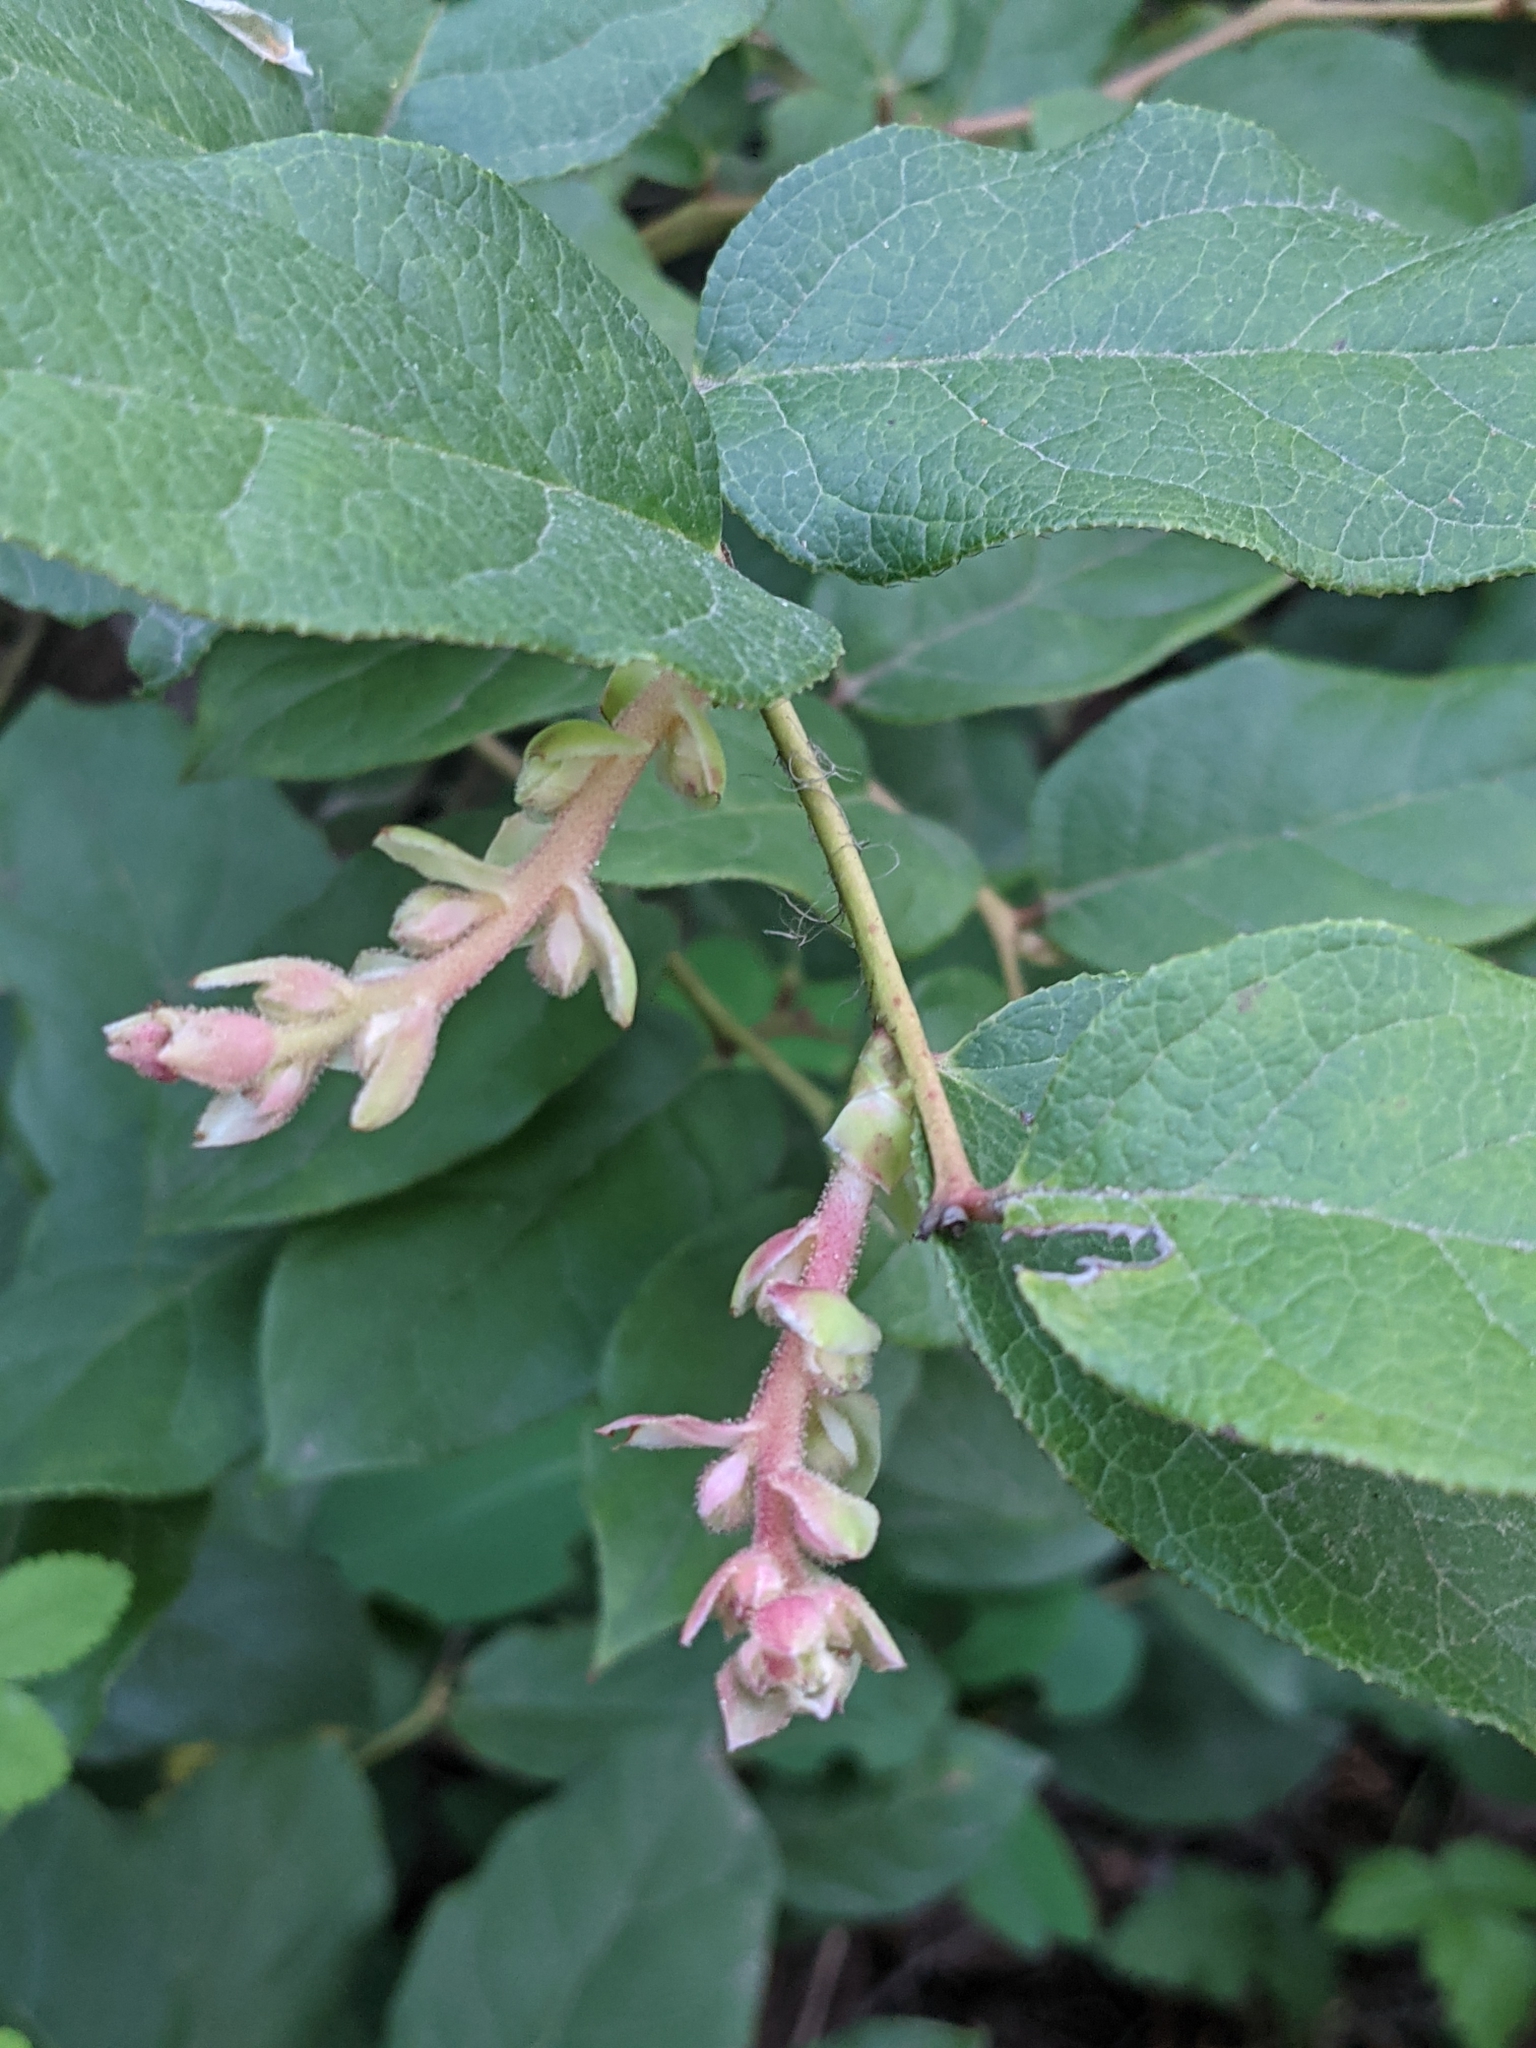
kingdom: Plantae
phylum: Tracheophyta
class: Magnoliopsida
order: Ericales
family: Ericaceae
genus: Gaultheria
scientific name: Gaultheria shallon
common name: Shallon
